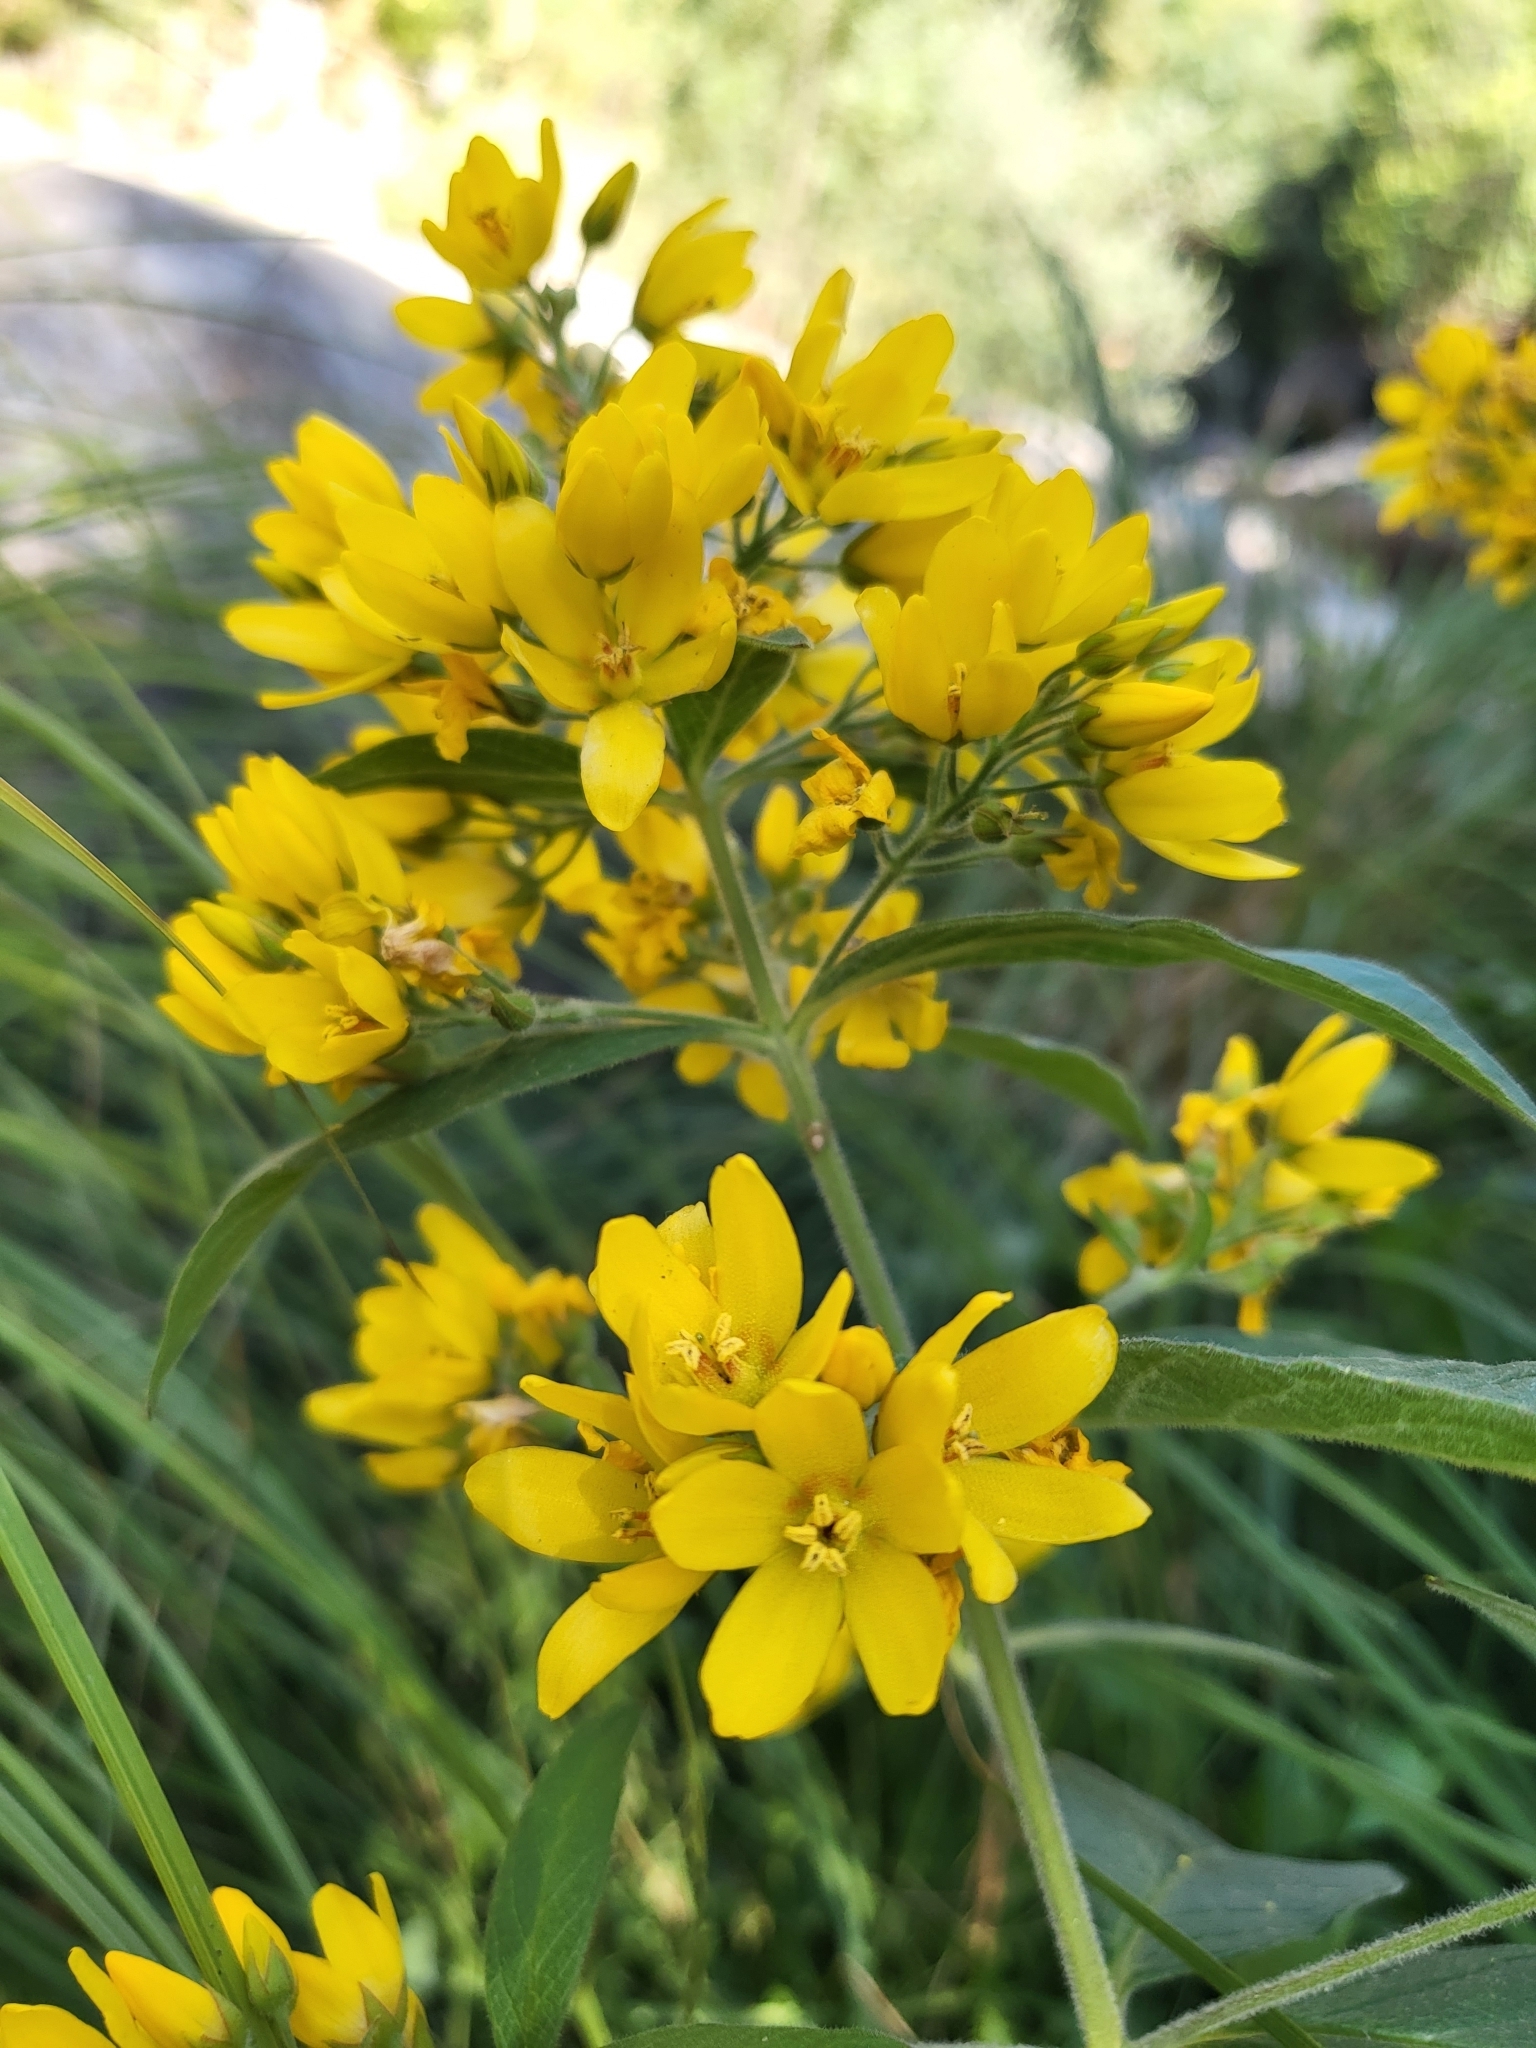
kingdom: Plantae
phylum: Tracheophyta
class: Magnoliopsida
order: Ericales
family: Primulaceae
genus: Lysimachia
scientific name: Lysimachia vulgaris
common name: Yellow loosestrife
